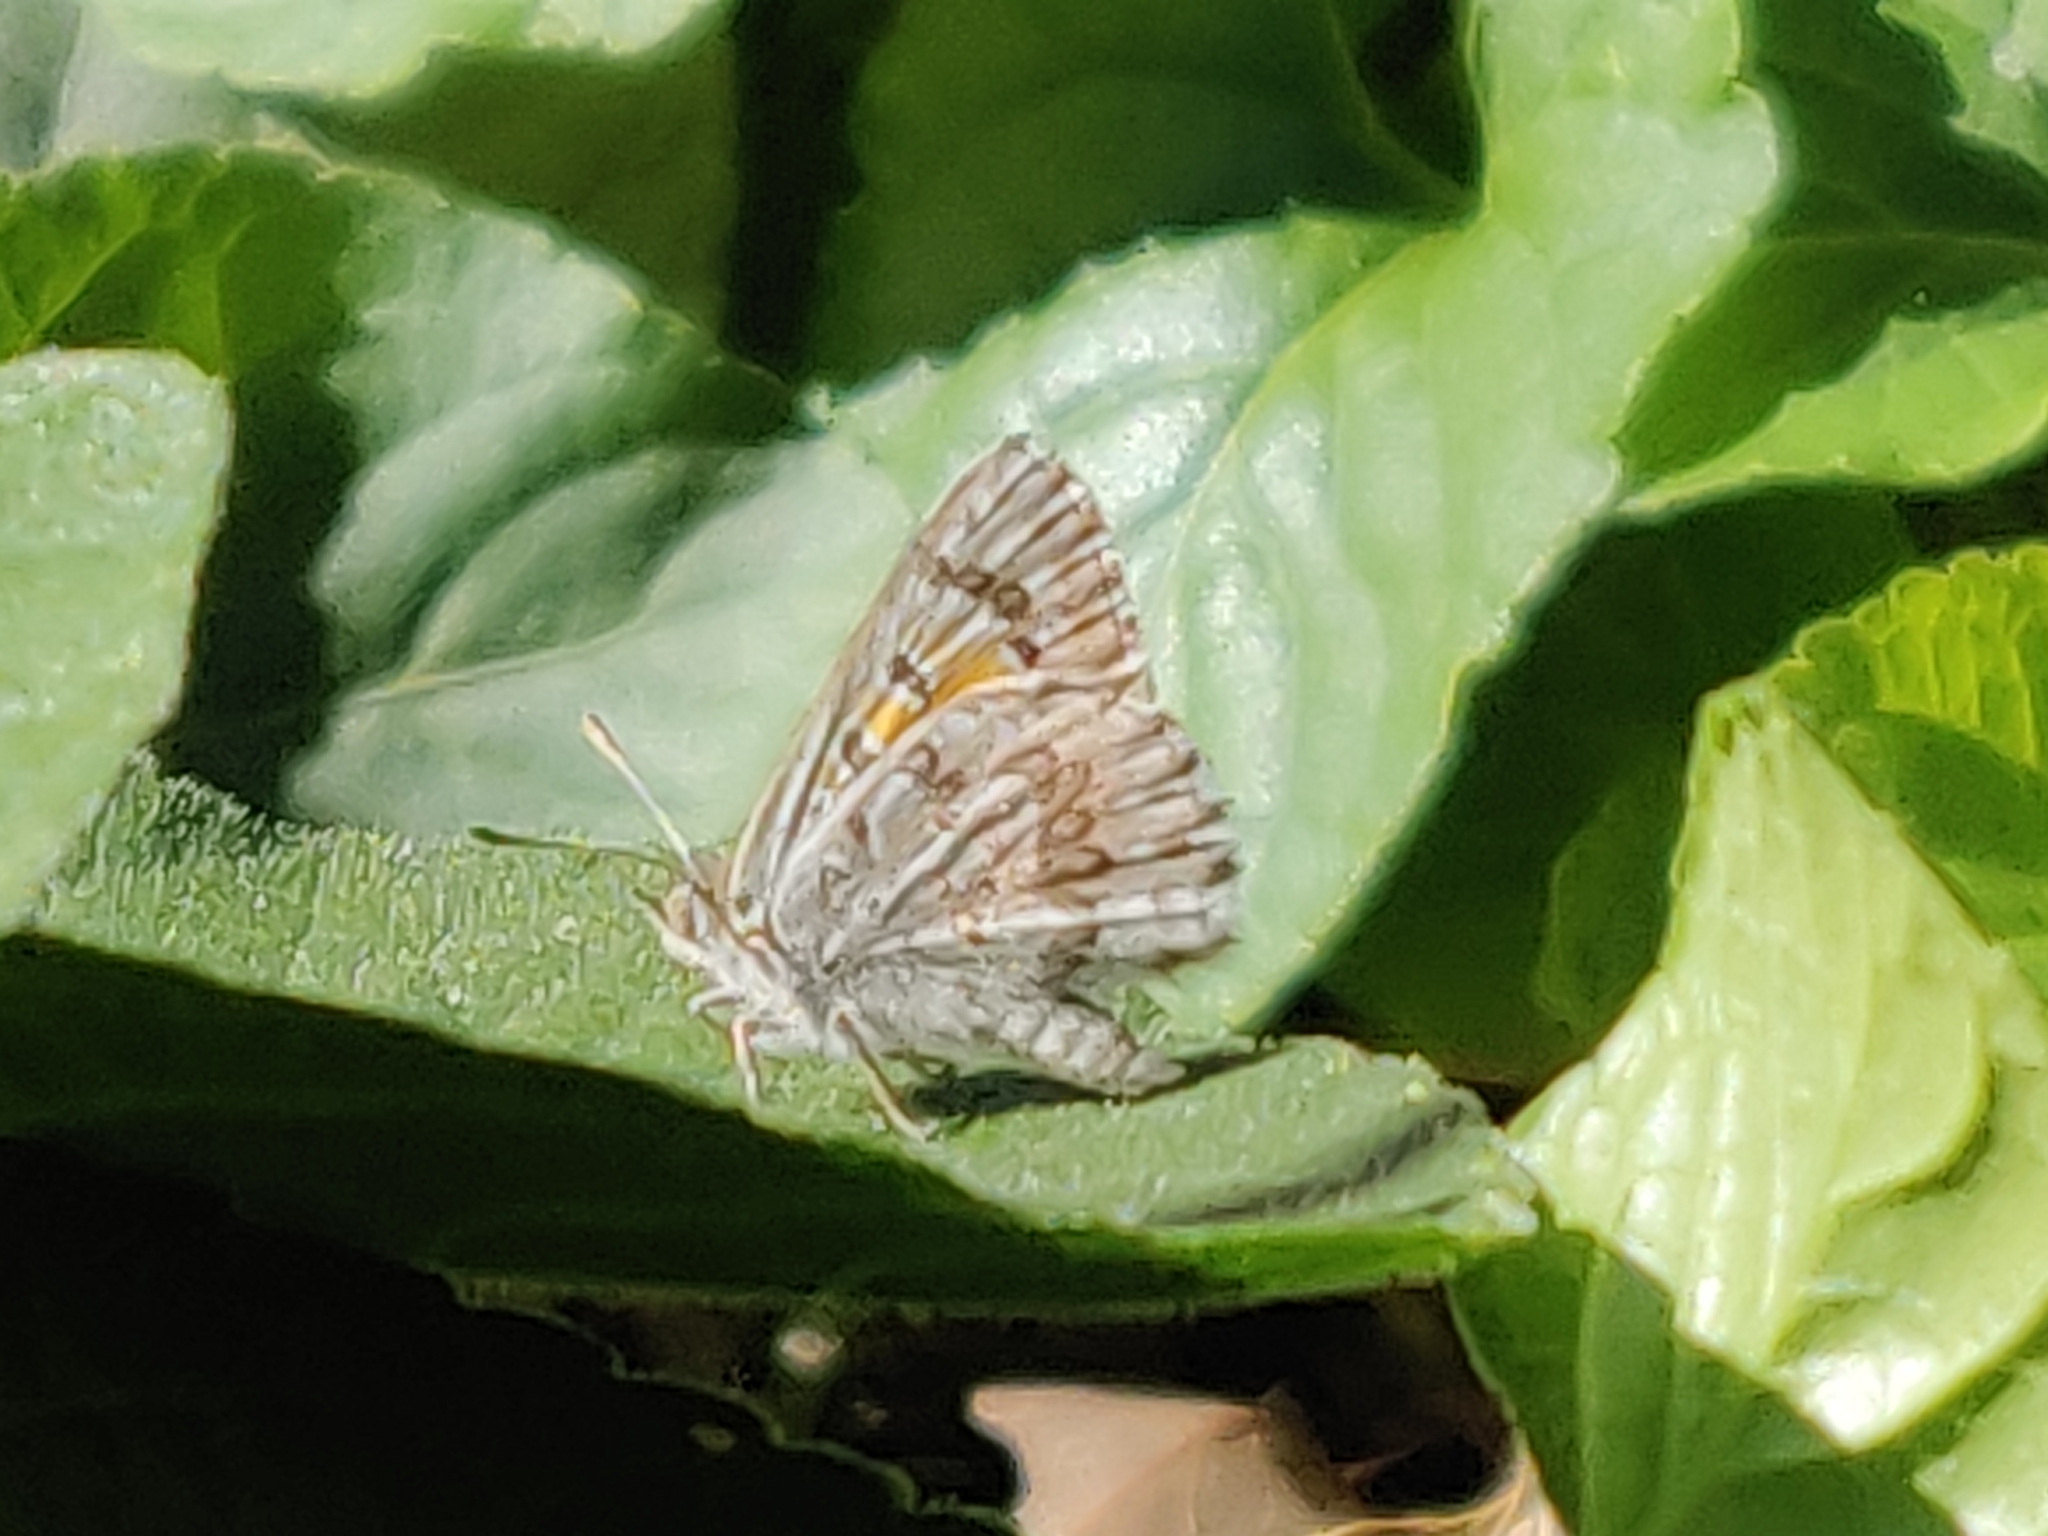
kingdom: Animalia
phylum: Arthropoda
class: Insecta
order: Lepidoptera
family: Lycaenidae
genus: Lucia
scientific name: Lucia limbaria
